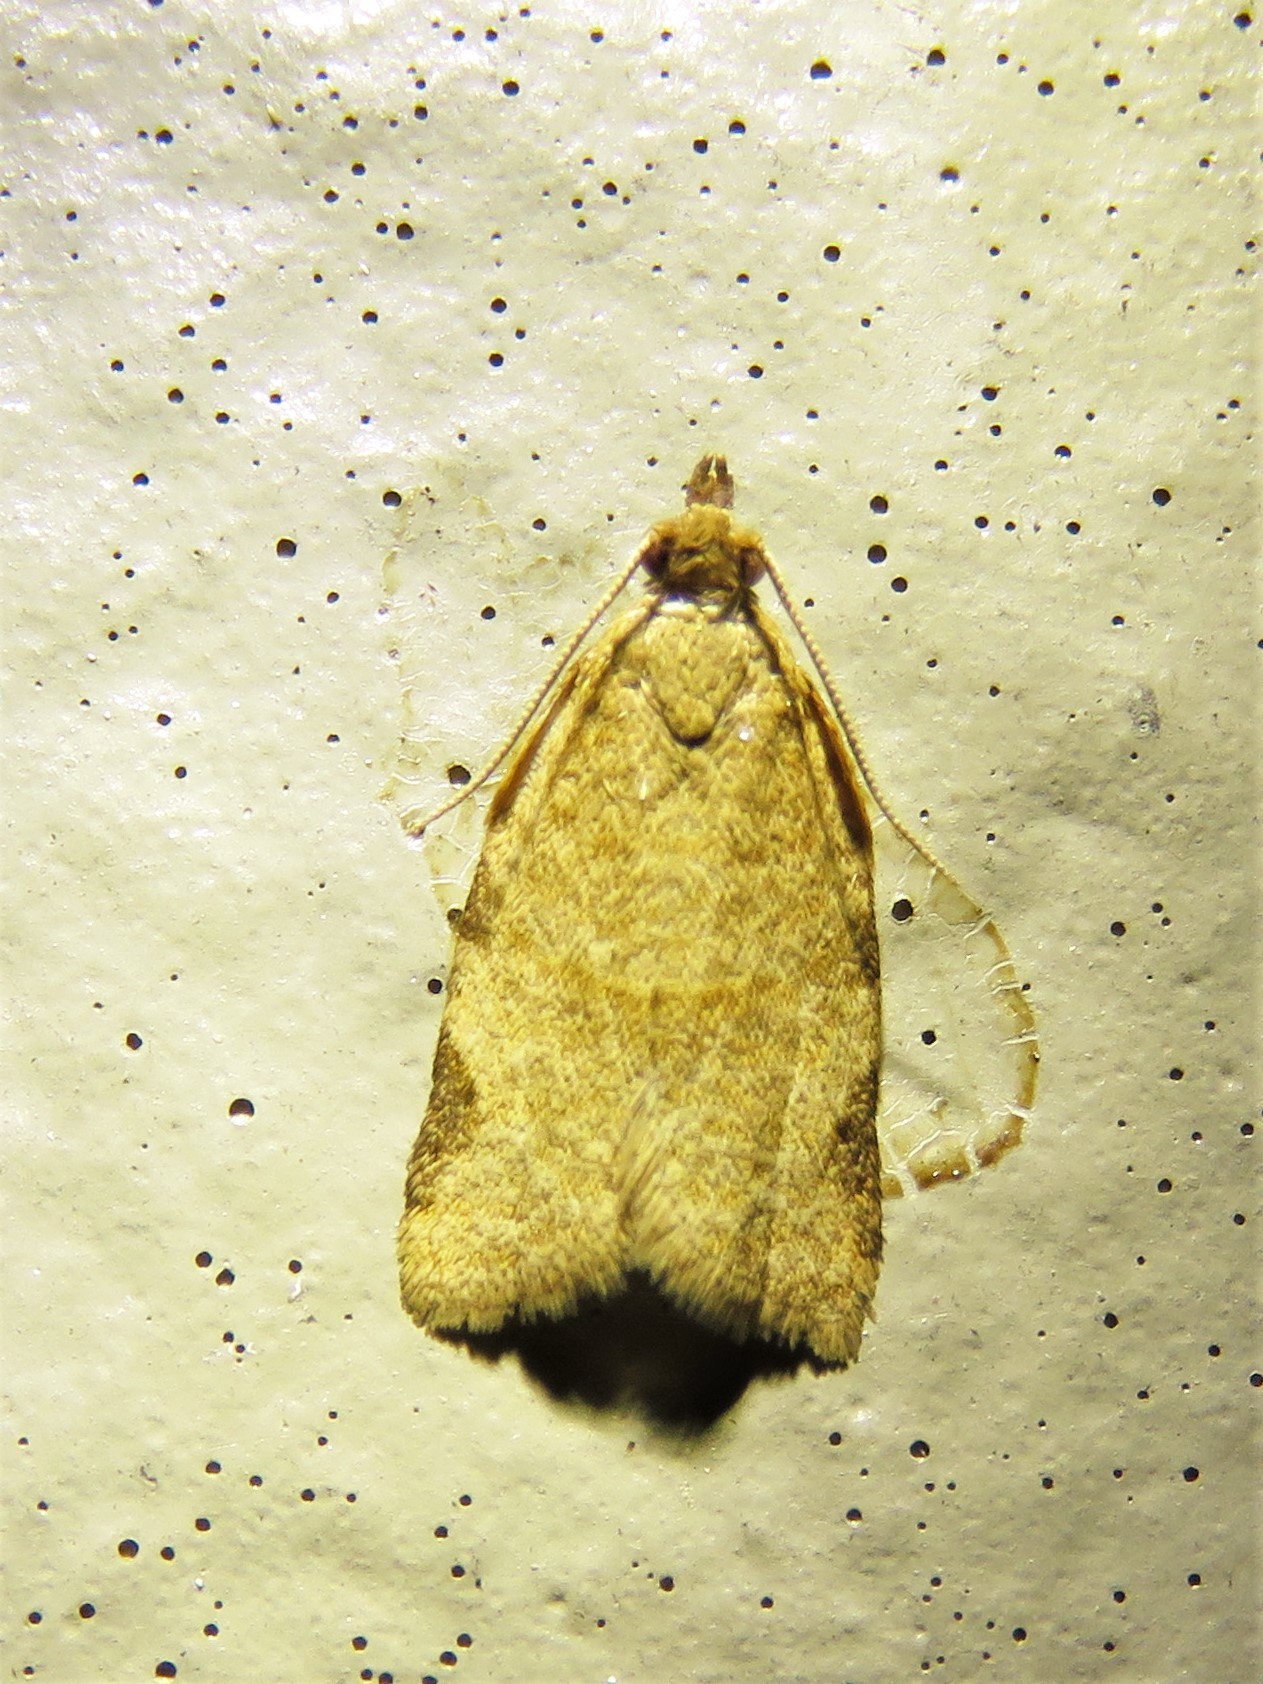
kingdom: Animalia
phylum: Arthropoda
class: Insecta
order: Lepidoptera
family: Tortricidae
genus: Clepsis
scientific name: Clepsis virescana
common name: Greenish apple moth
